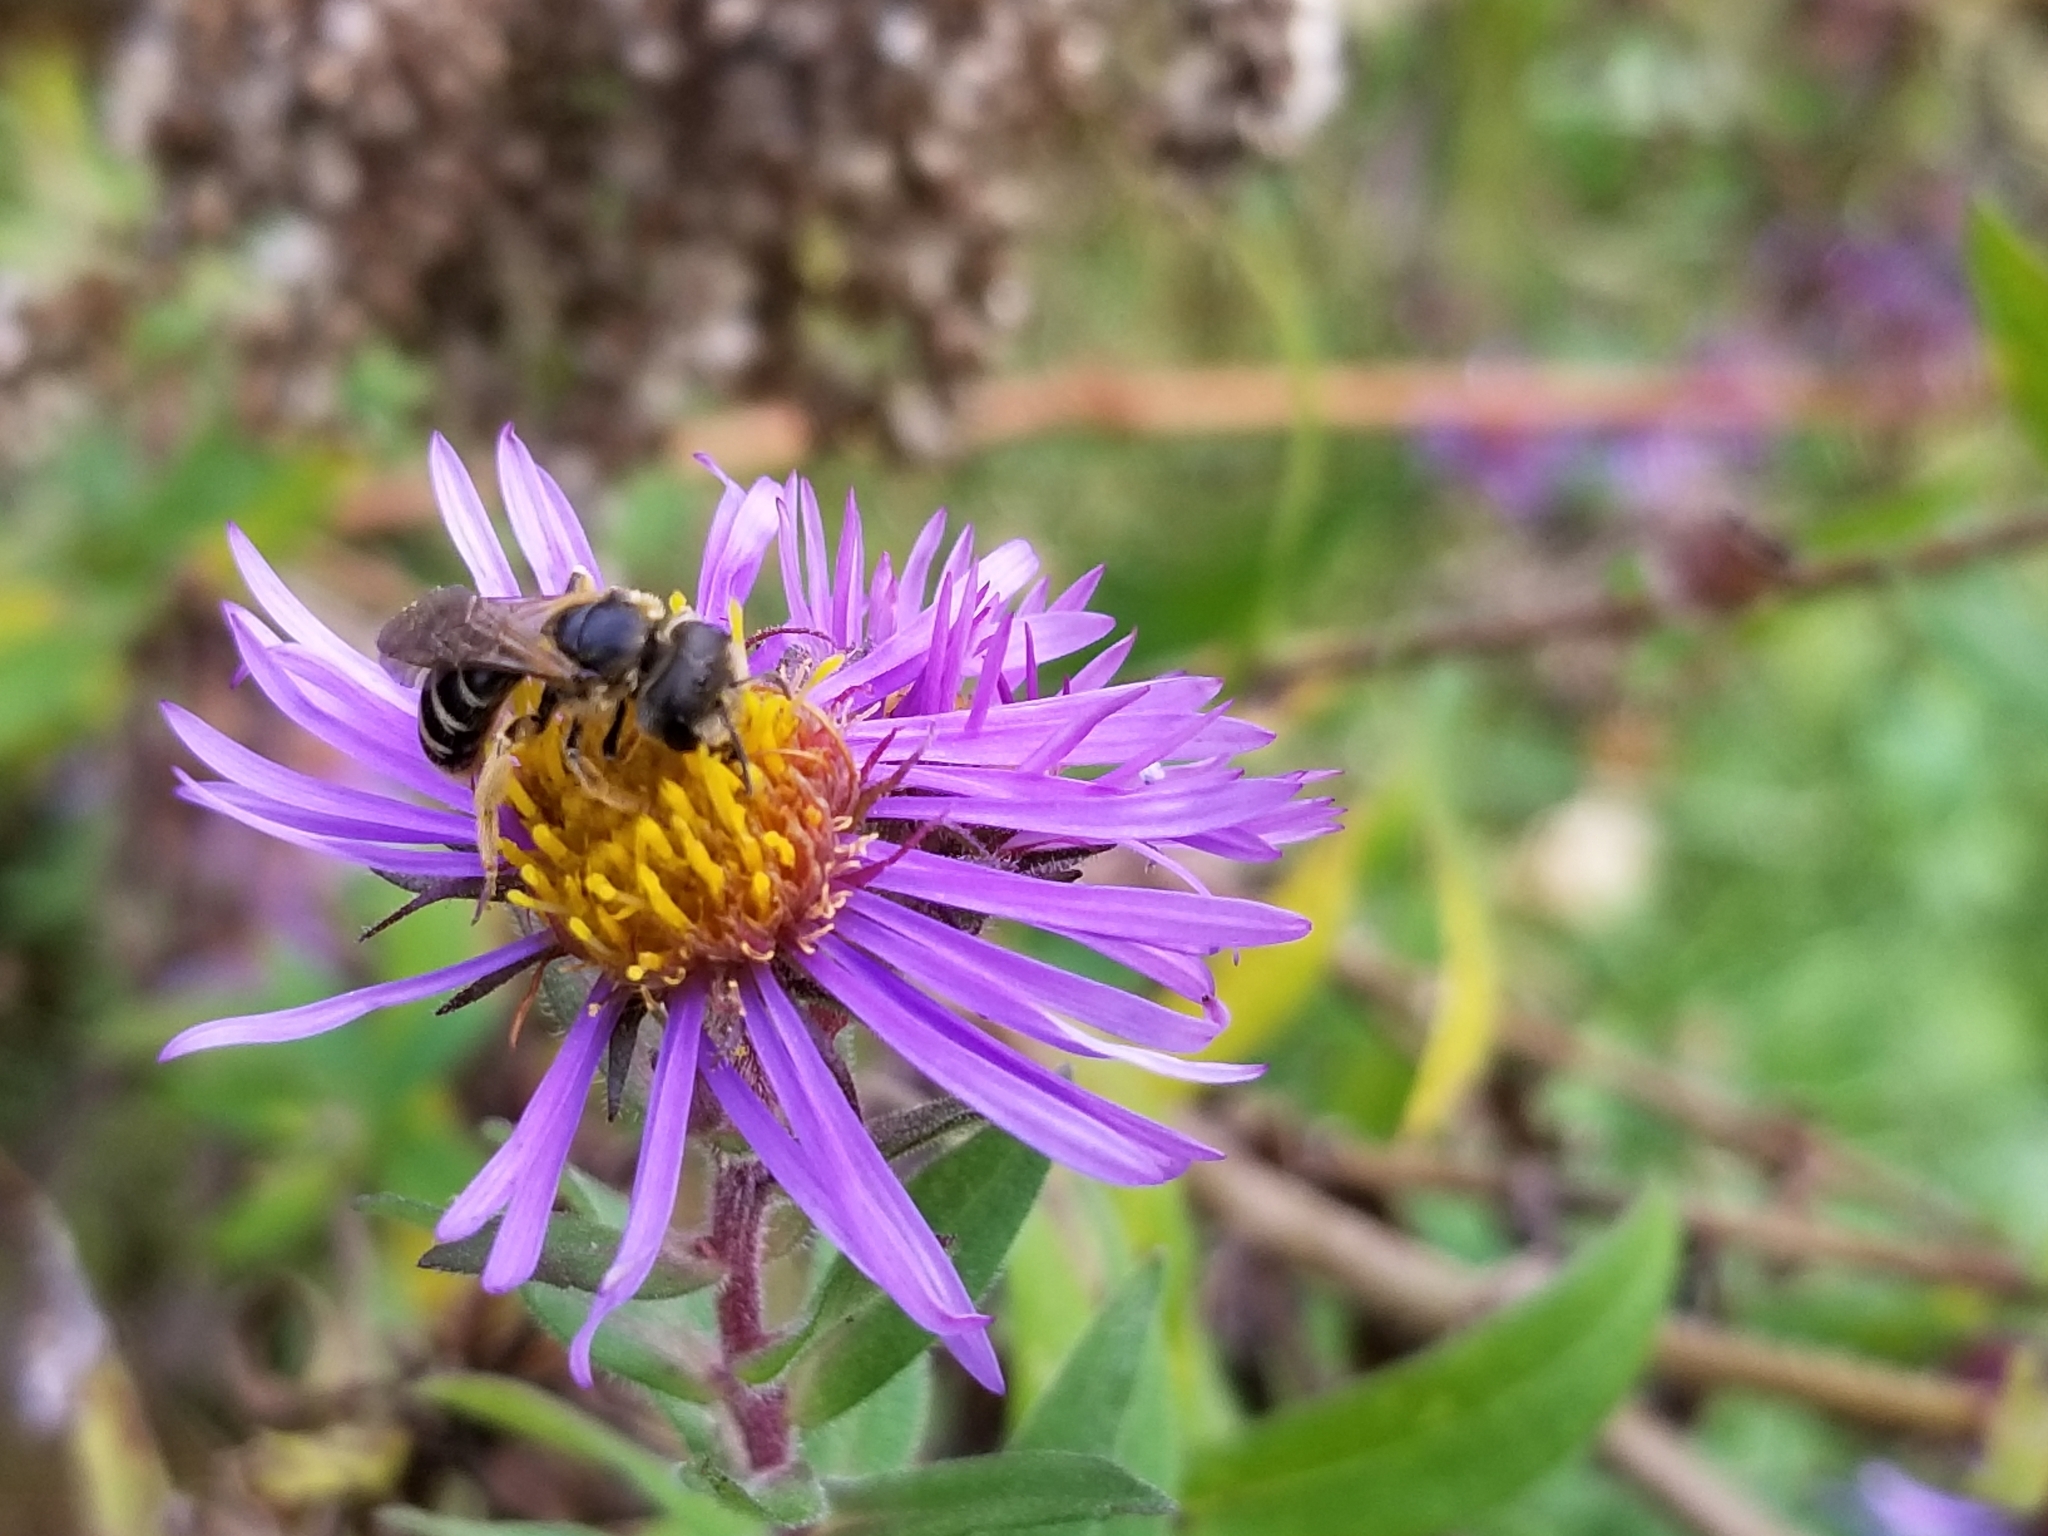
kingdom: Animalia
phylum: Arthropoda
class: Insecta
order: Hymenoptera
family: Halictidae
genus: Halictus
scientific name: Halictus ligatus
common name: Ligated furrow bee
